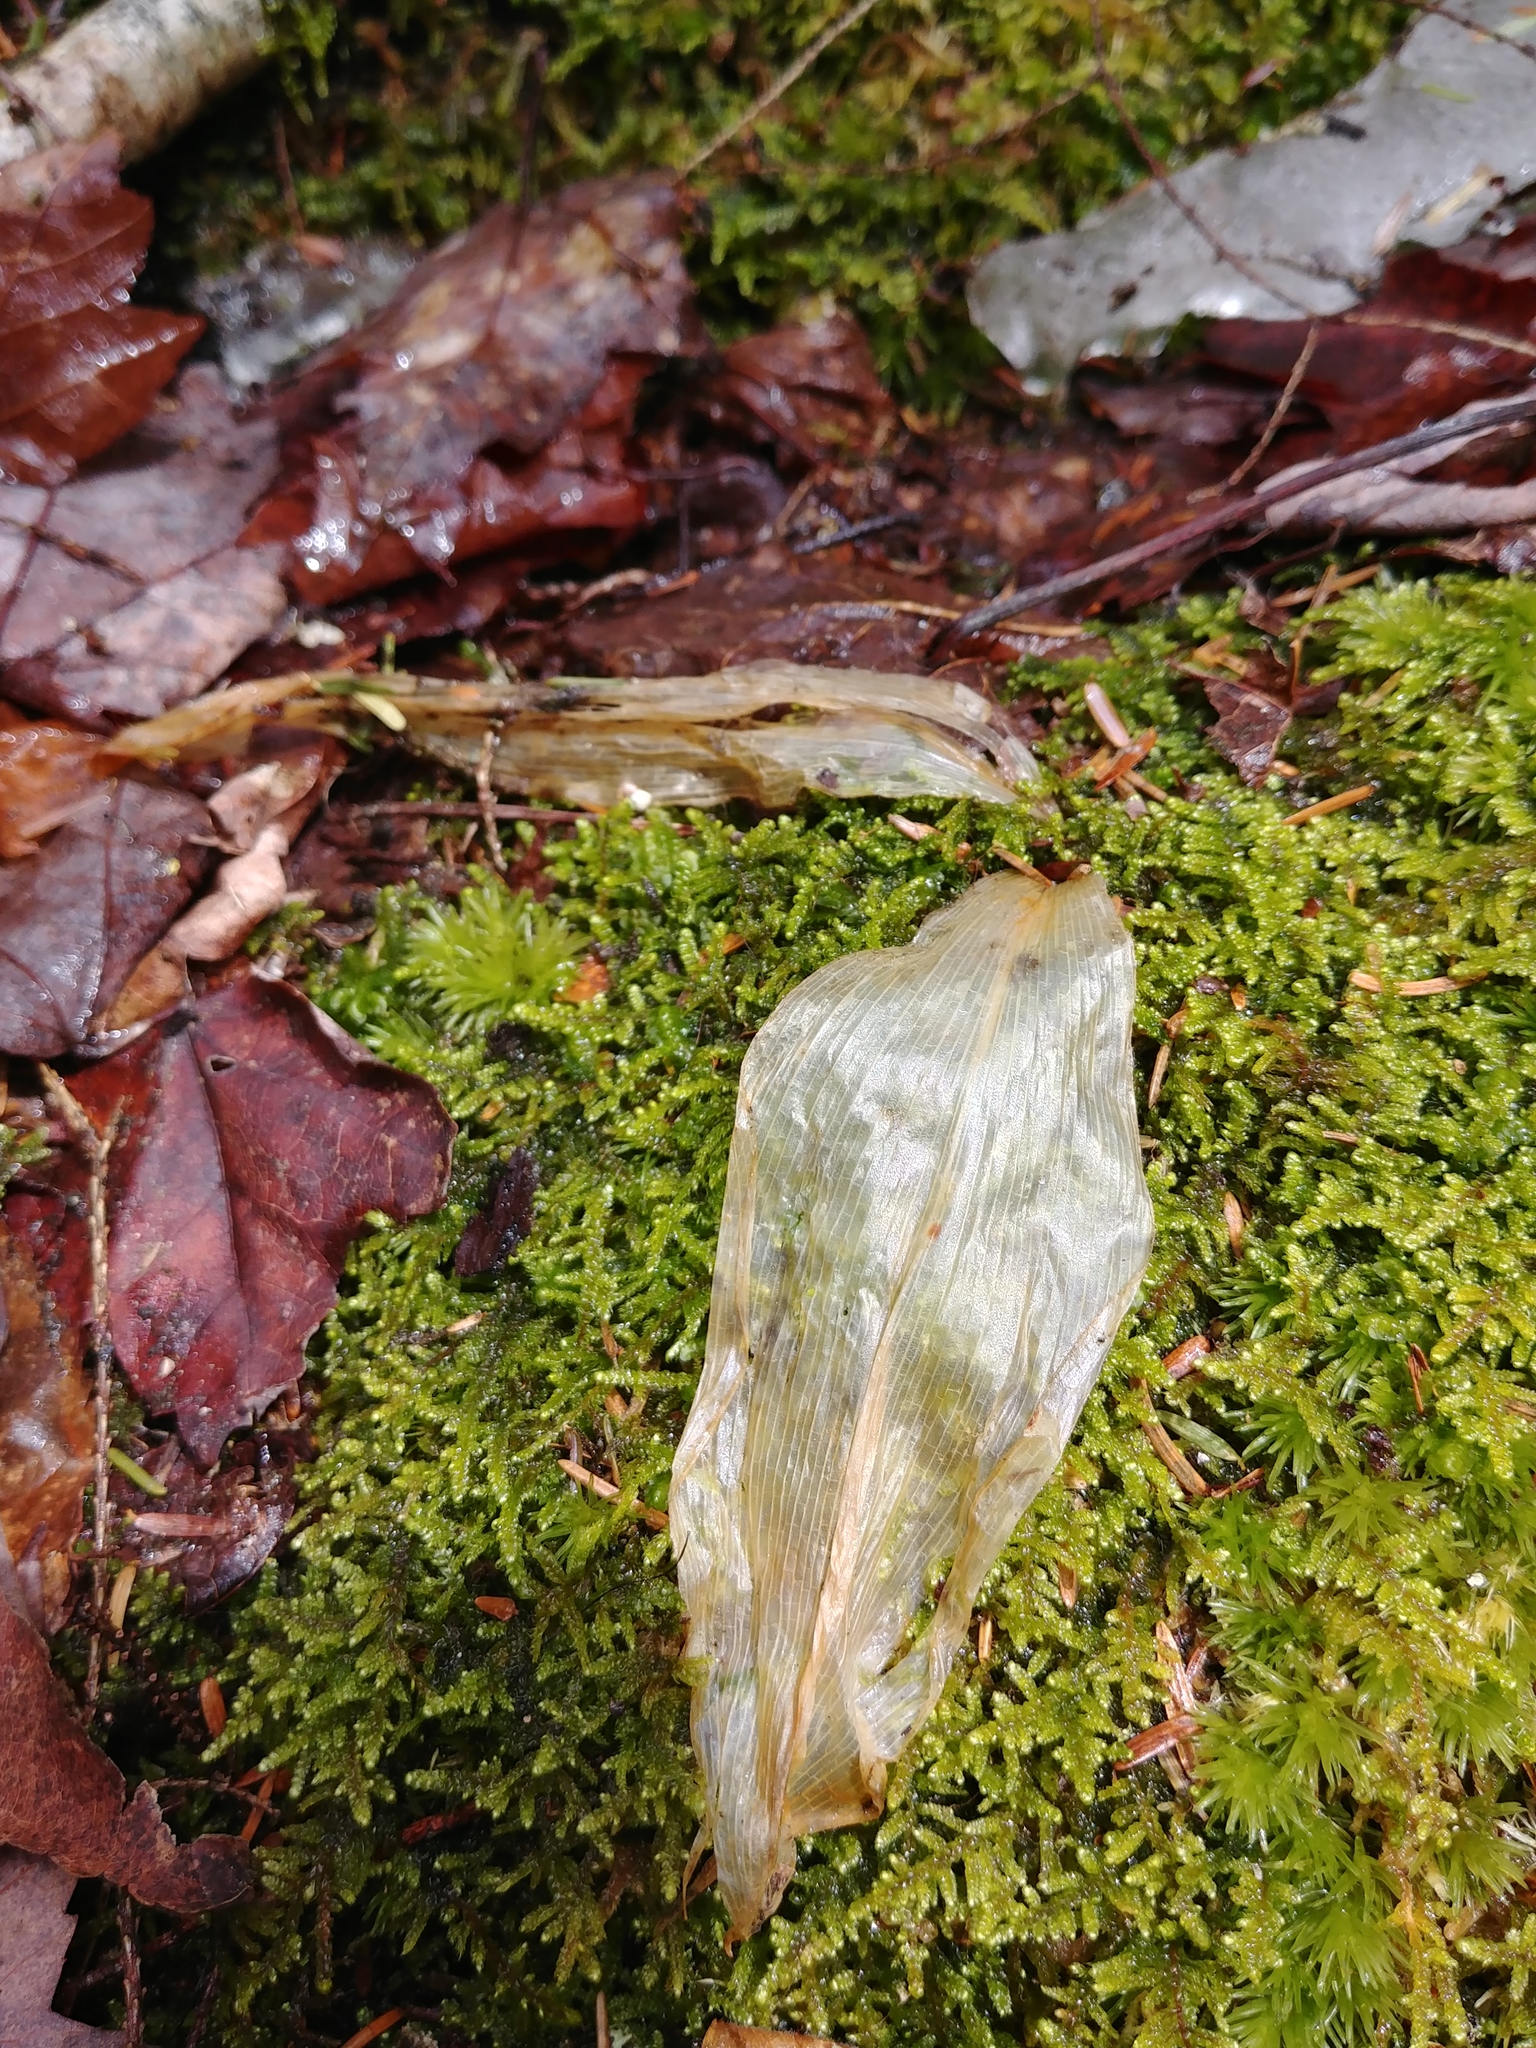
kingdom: Plantae
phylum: Tracheophyta
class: Liliopsida
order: Liliales
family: Liliaceae
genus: Clintonia
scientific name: Clintonia borealis
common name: Yellow clintonia
